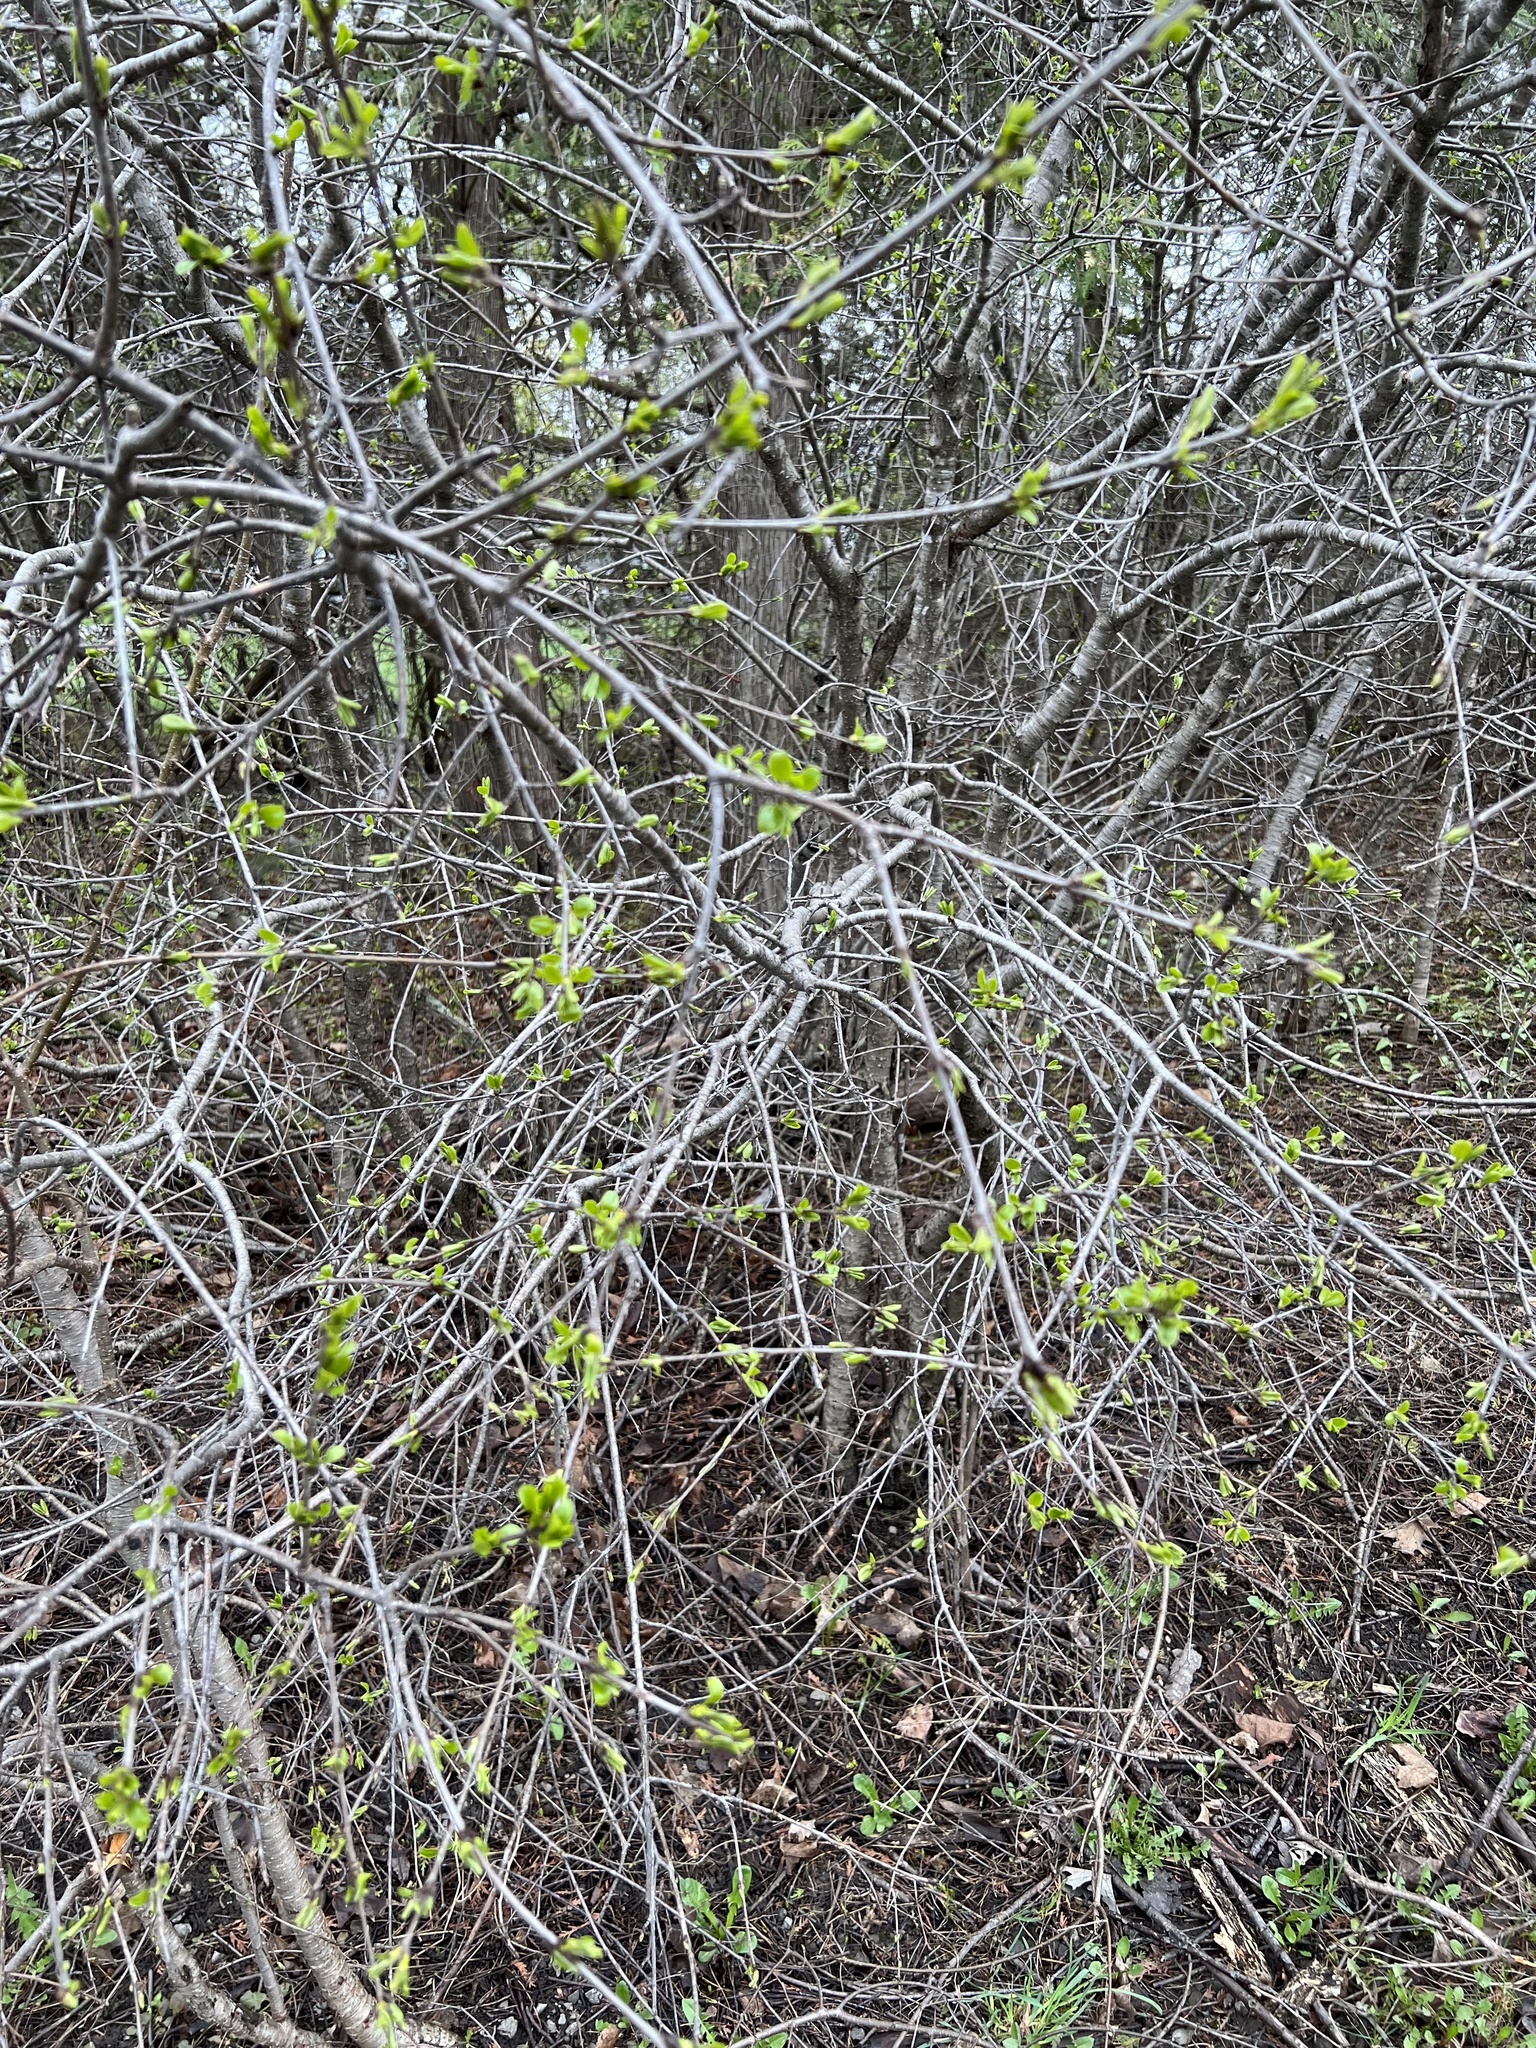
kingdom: Plantae
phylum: Tracheophyta
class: Magnoliopsida
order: Rosales
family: Rhamnaceae
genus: Rhamnus
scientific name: Rhamnus cathartica
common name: Common buckthorn
